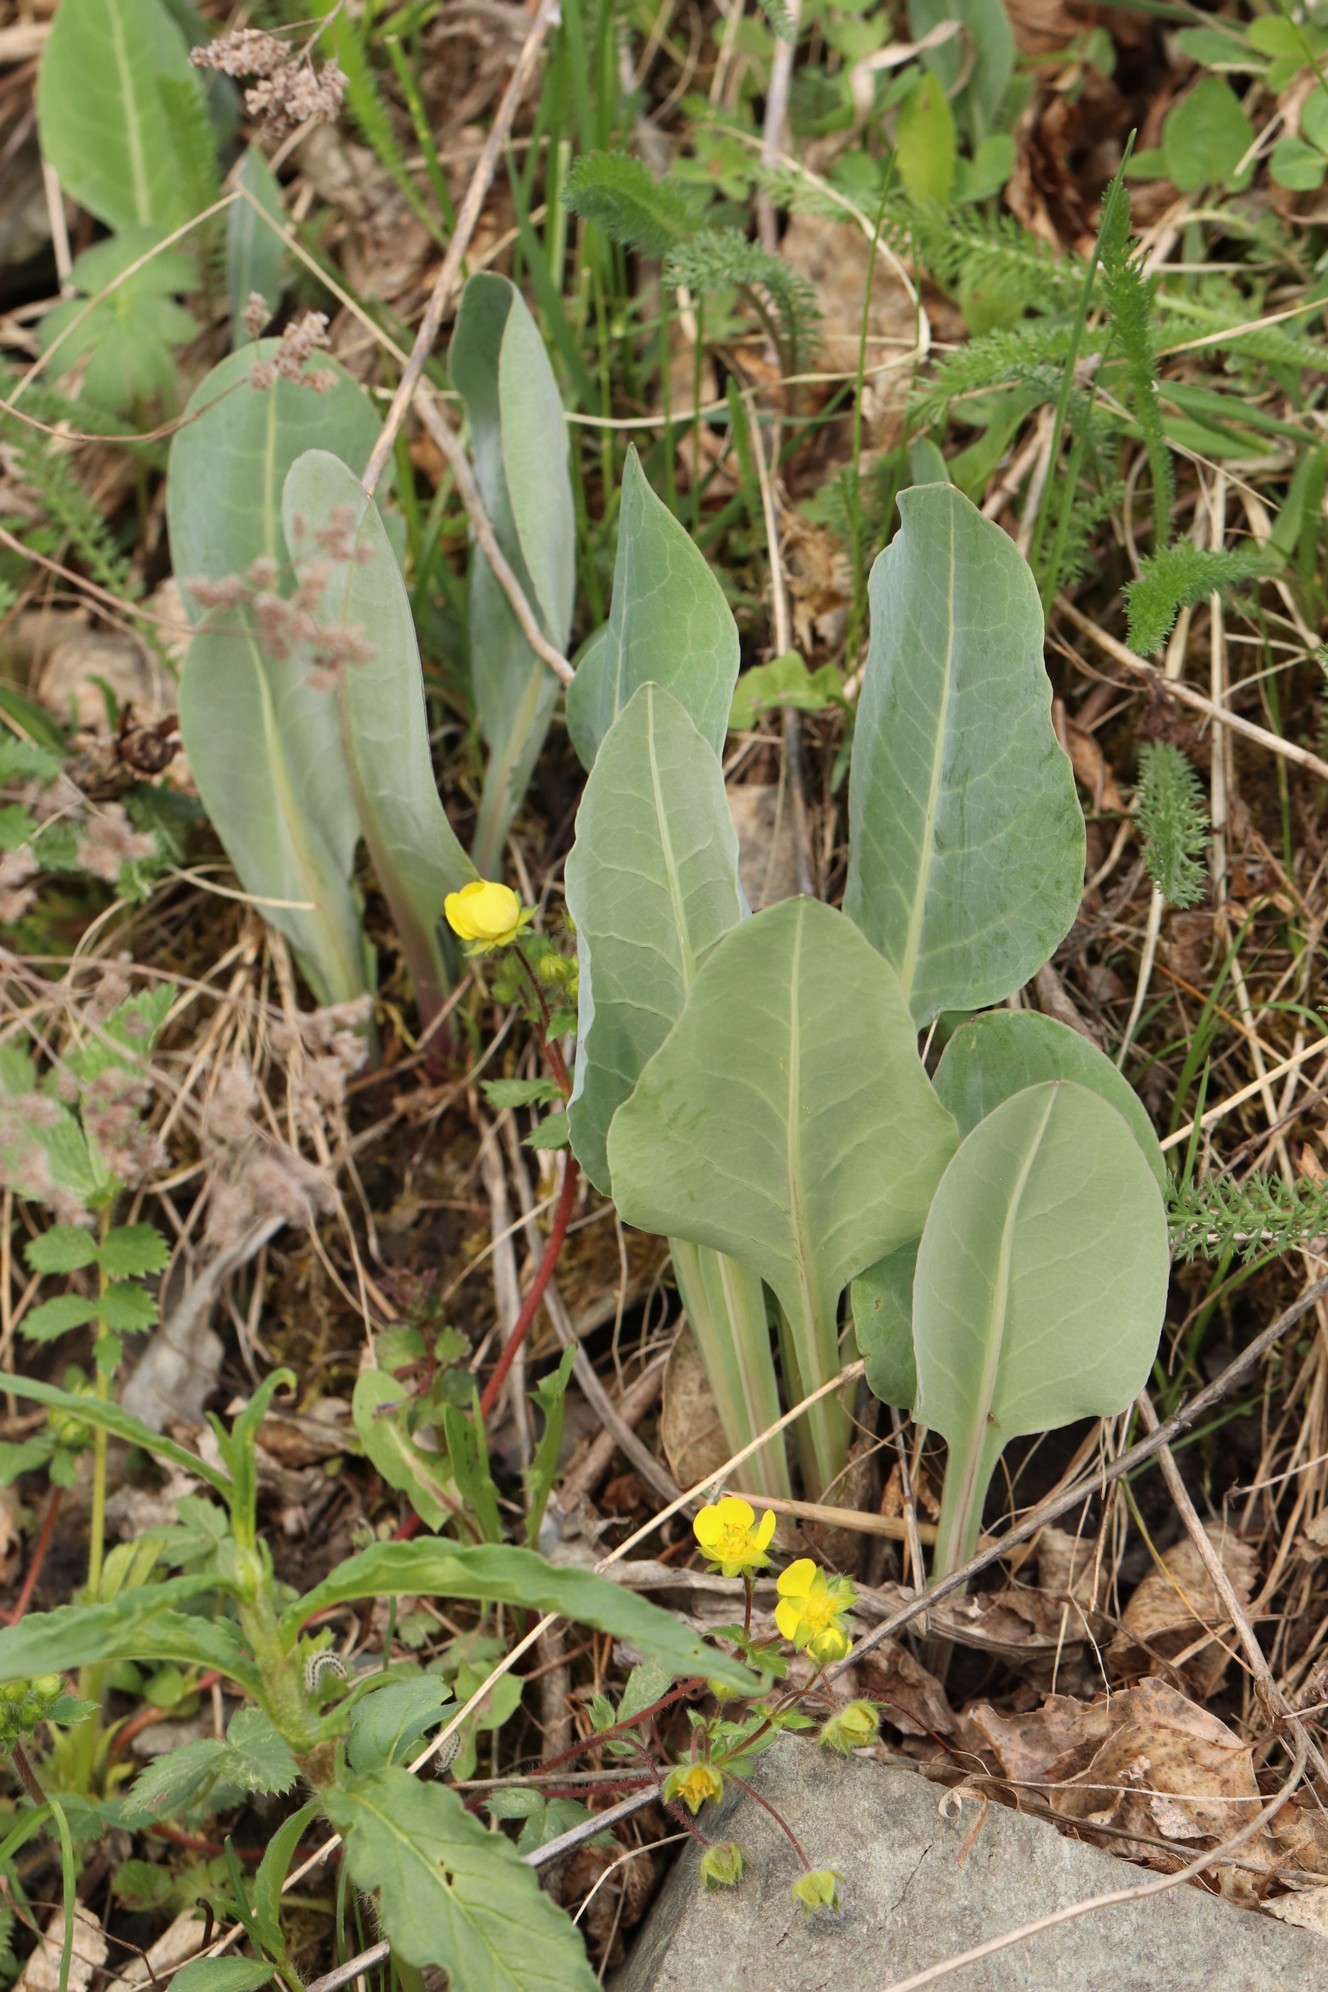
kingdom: Plantae
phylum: Tracheophyta
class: Magnoliopsida
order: Asterales
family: Asteraceae
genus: Ligularia
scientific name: Ligularia glauca
